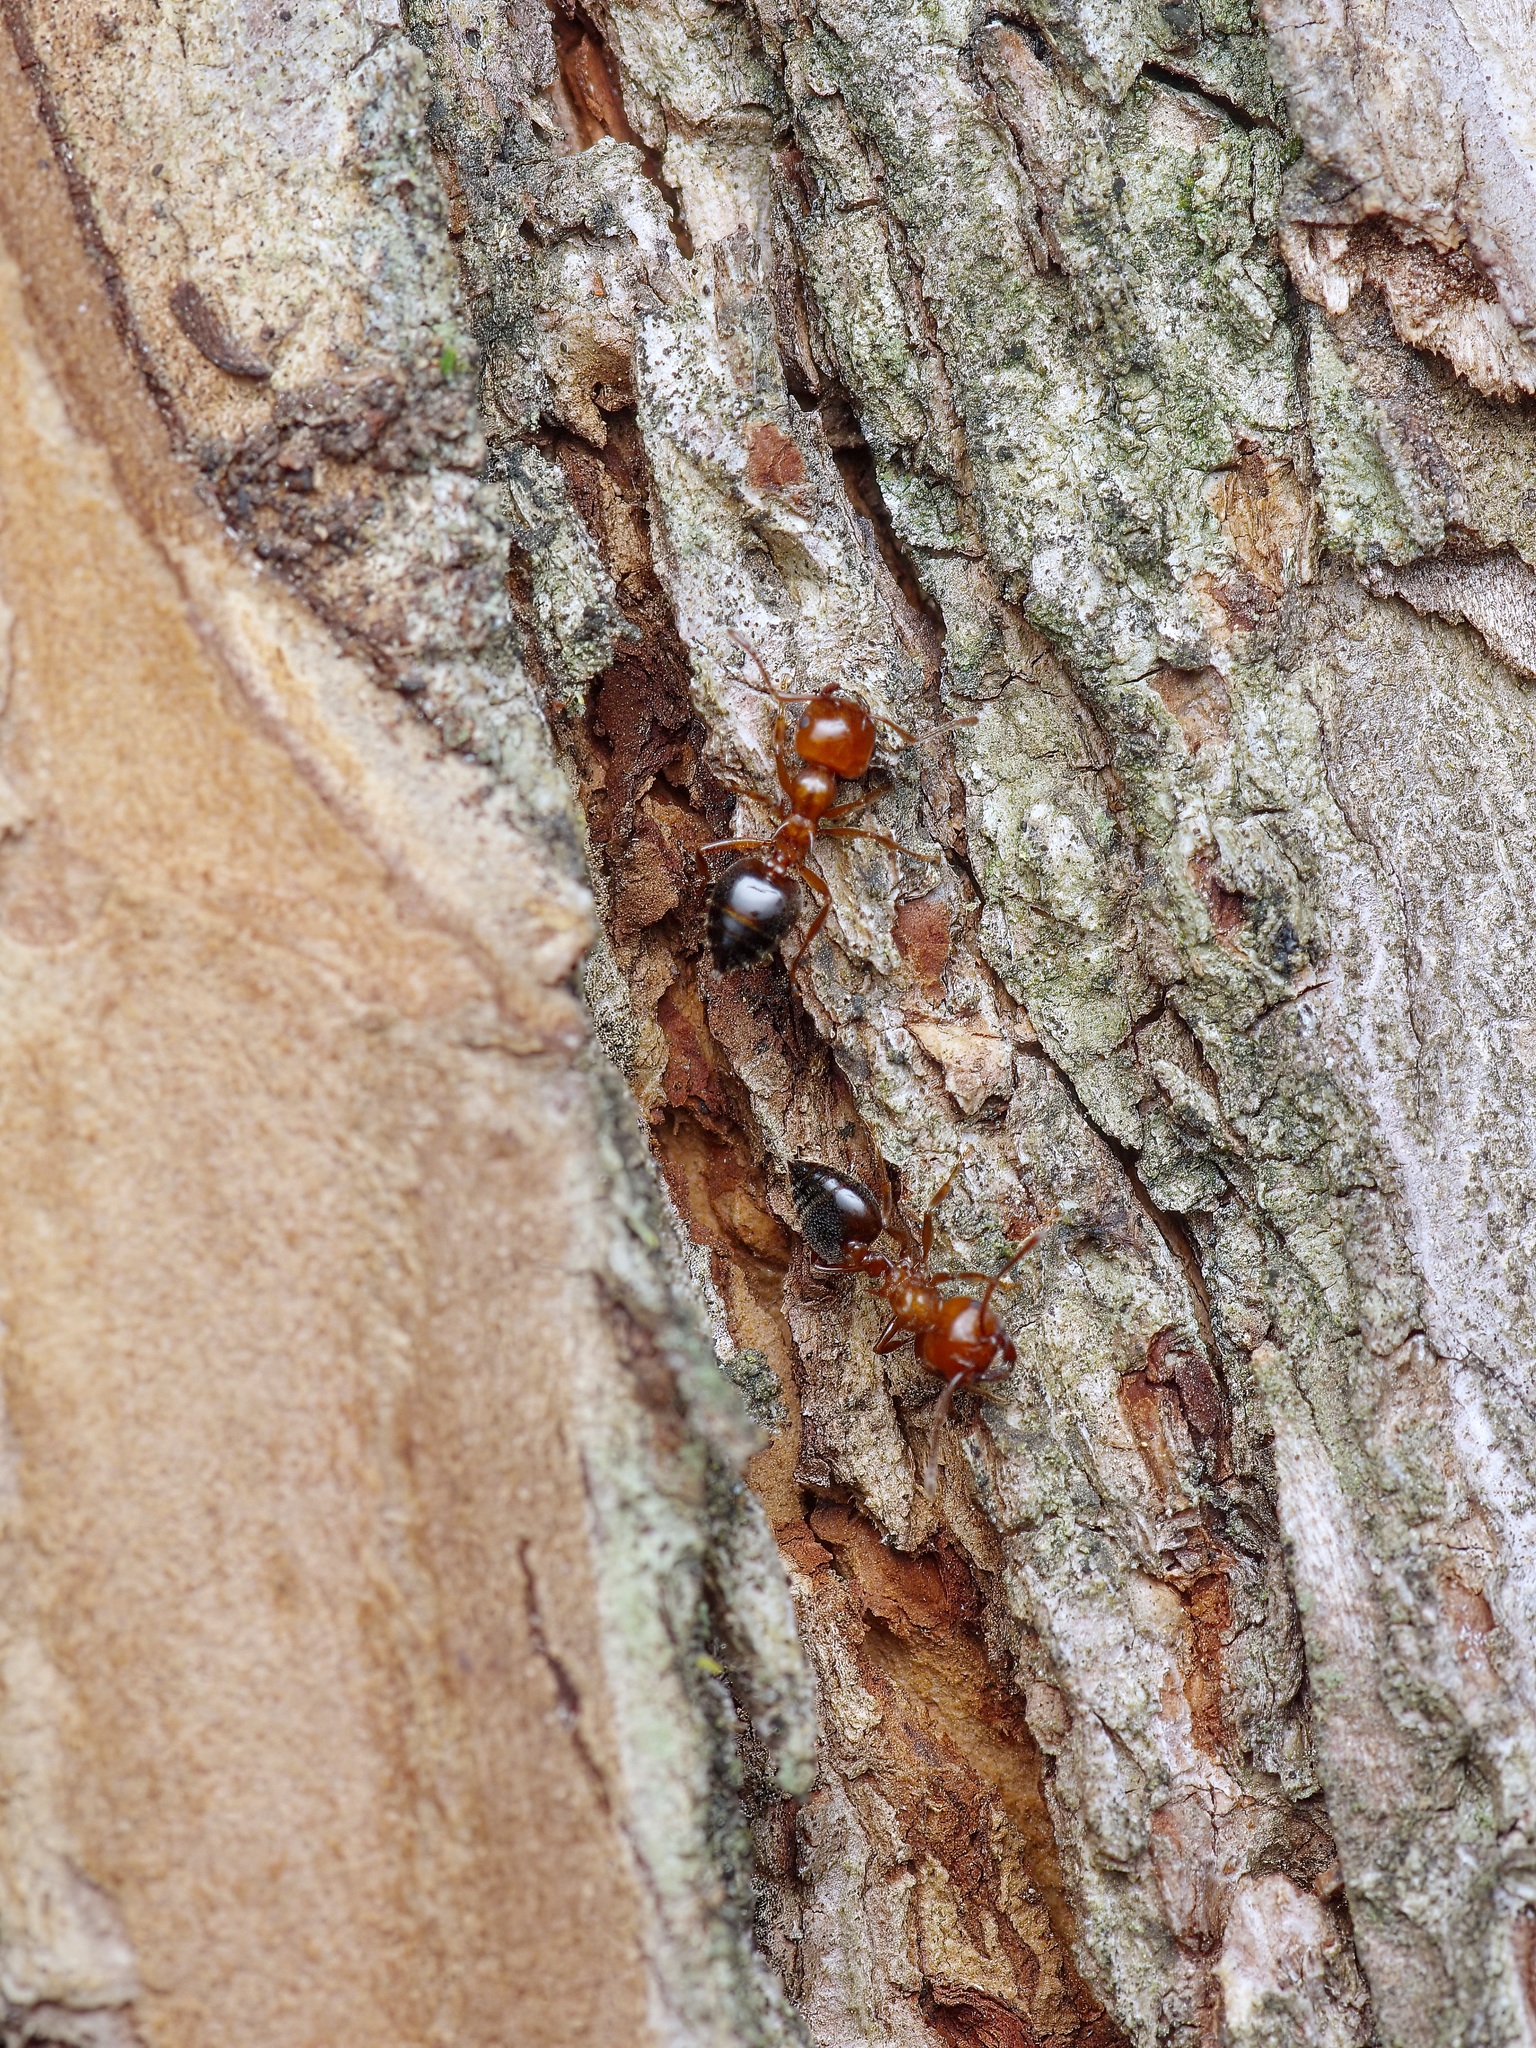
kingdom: Animalia
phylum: Arthropoda
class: Insecta
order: Hymenoptera
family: Formicidae
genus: Crematogaster
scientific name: Crematogaster laeviuscula
